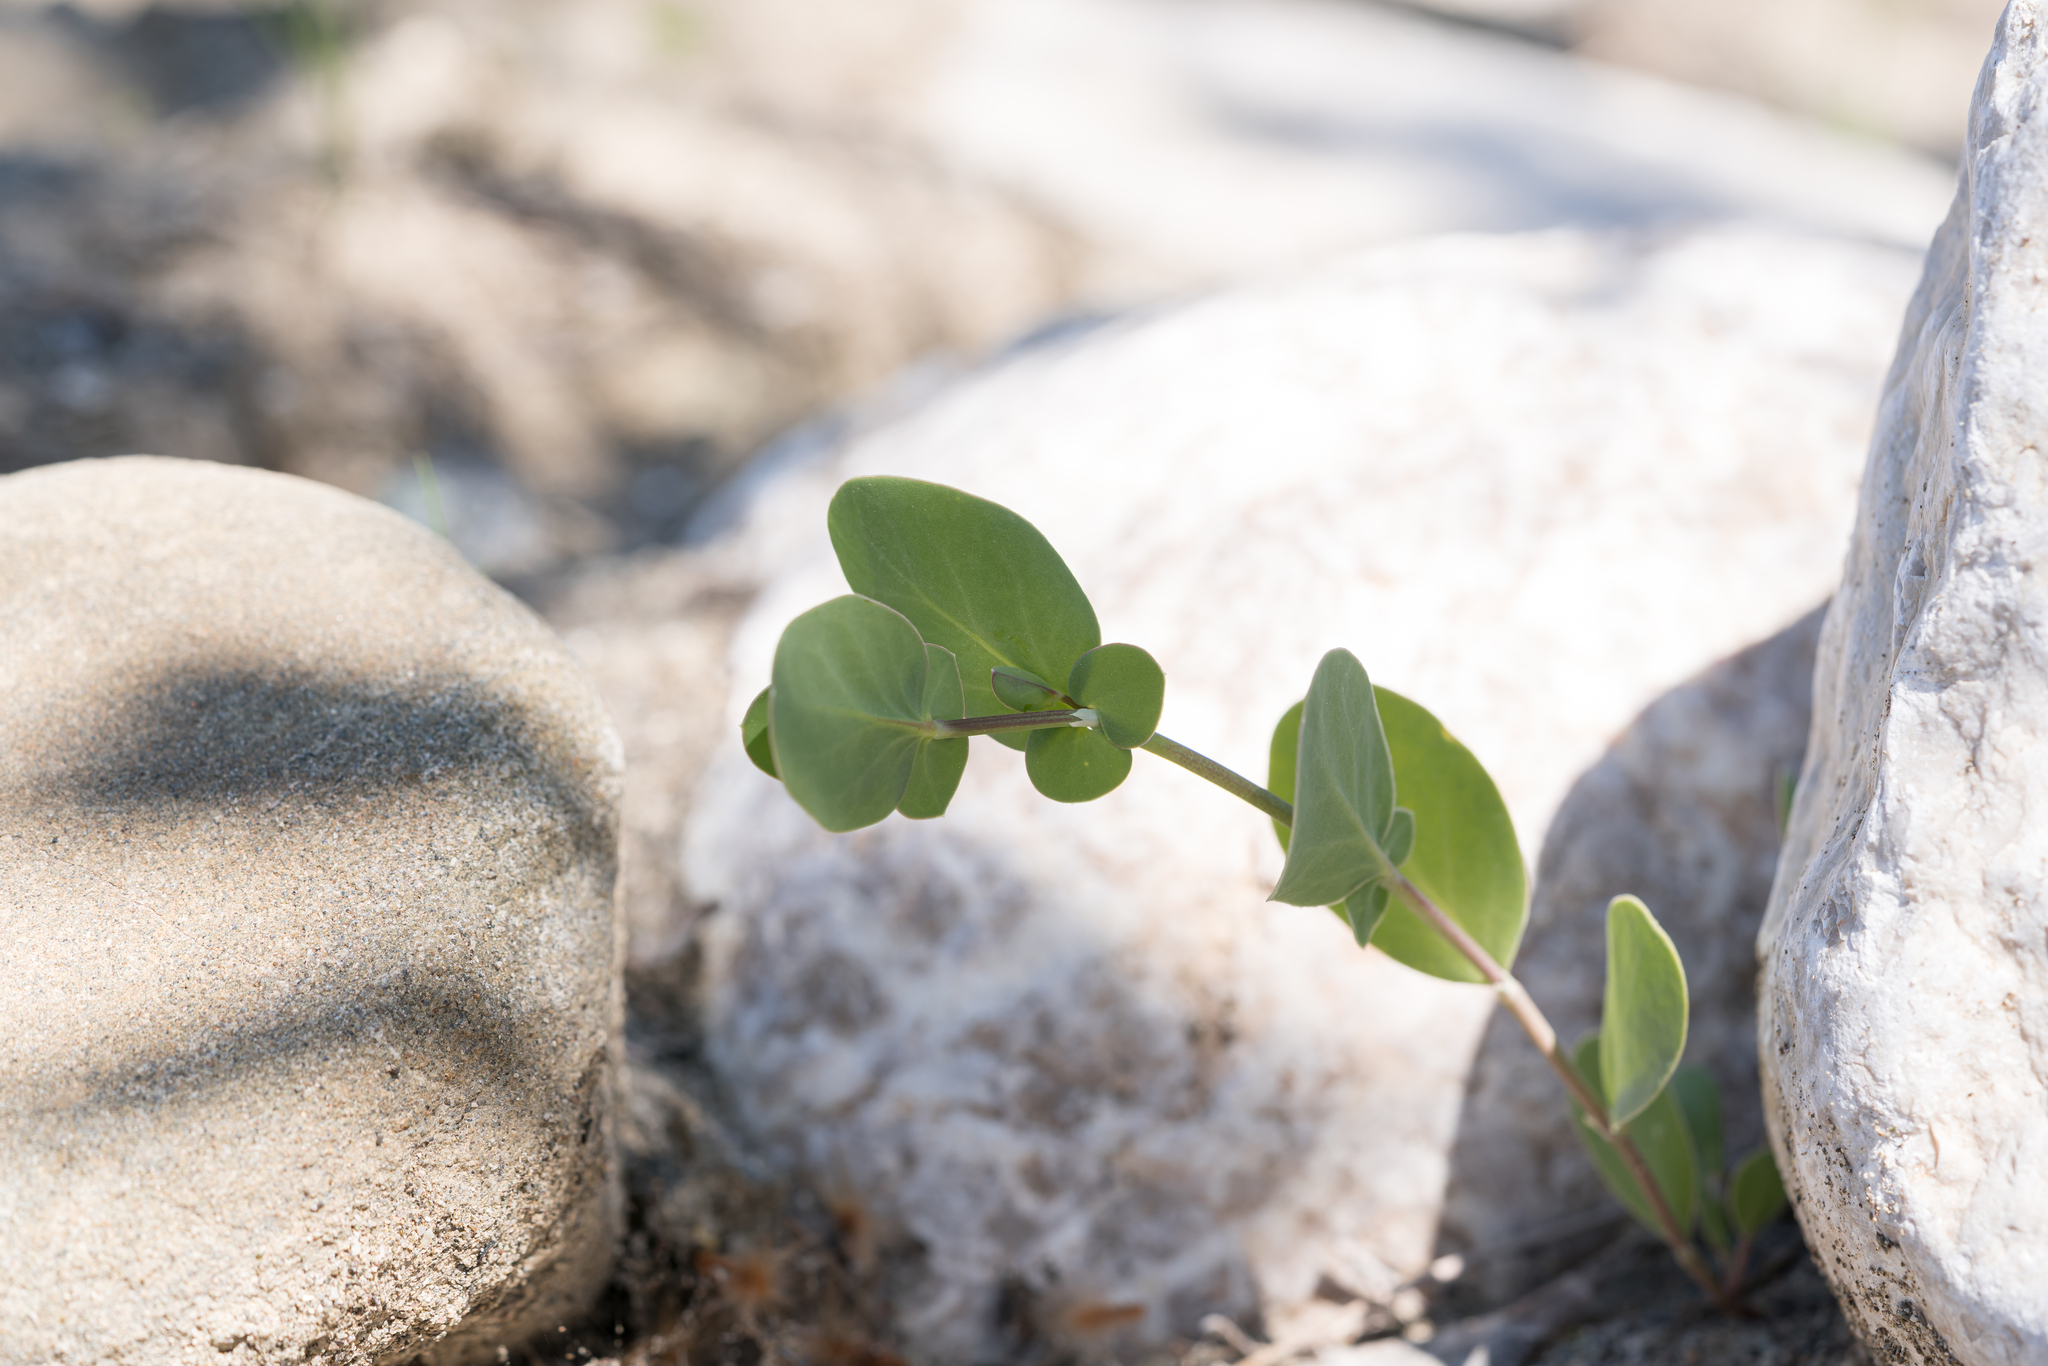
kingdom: Plantae
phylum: Tracheophyta
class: Magnoliopsida
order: Fabales
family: Fabaceae
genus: Coronilla
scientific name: Coronilla scorpioides
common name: Annual scorpion-vetch
